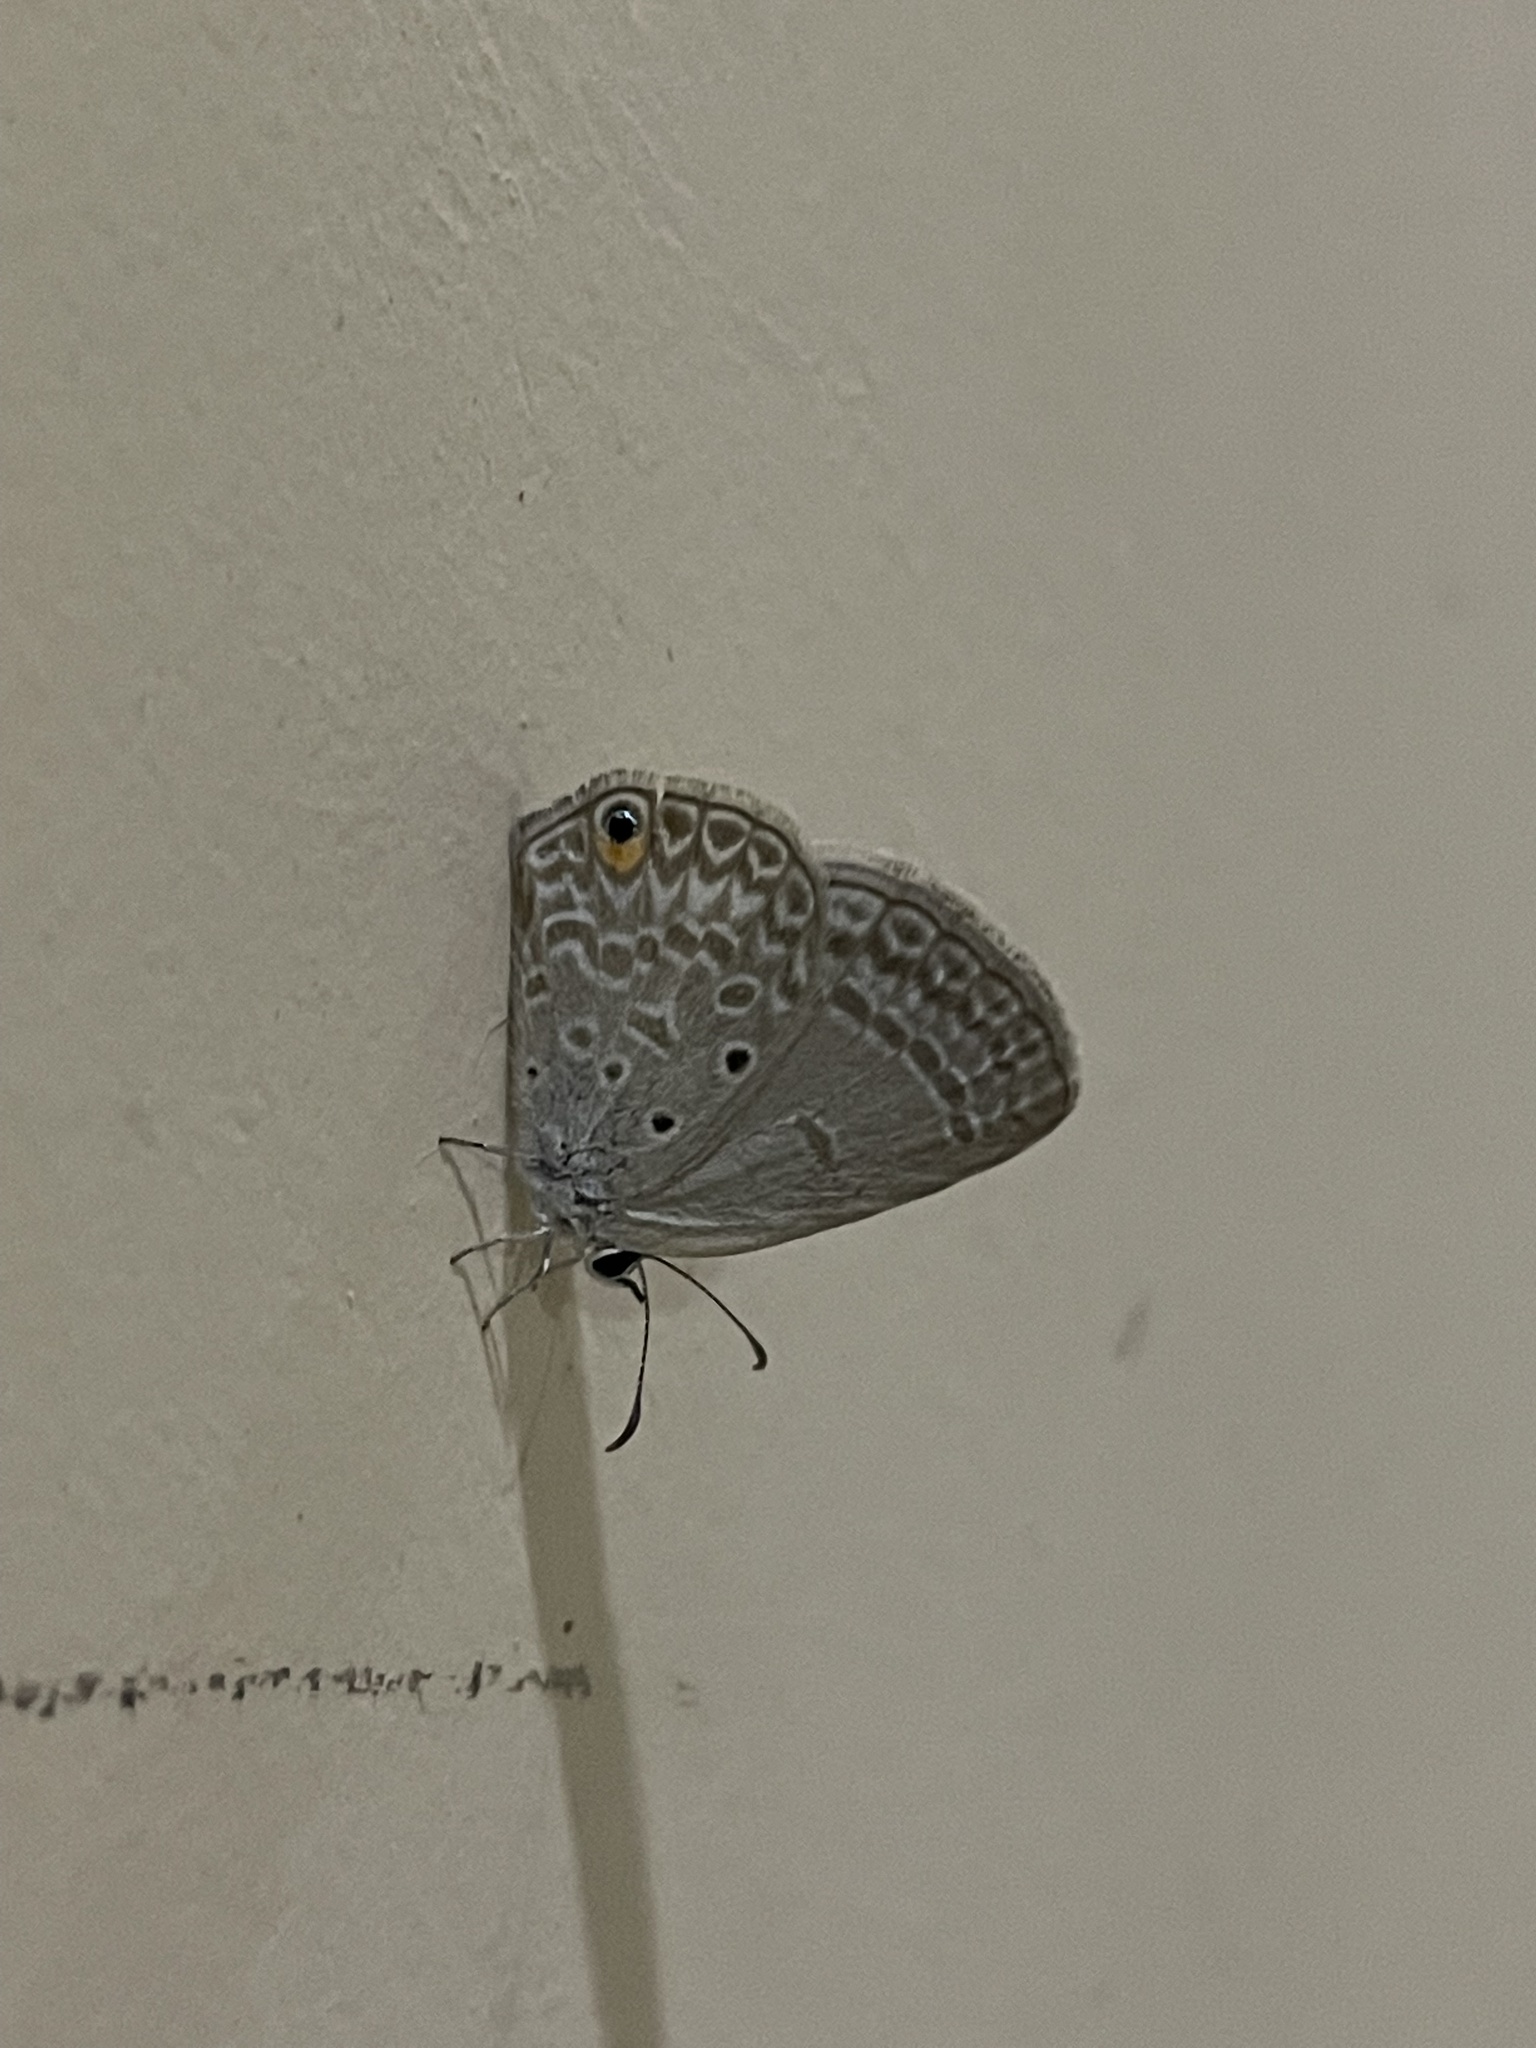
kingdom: Animalia
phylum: Arthropoda
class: Insecta
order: Lepidoptera
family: Lycaenidae
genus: Euchrysops
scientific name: Euchrysops malathana
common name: Common smoky blue
